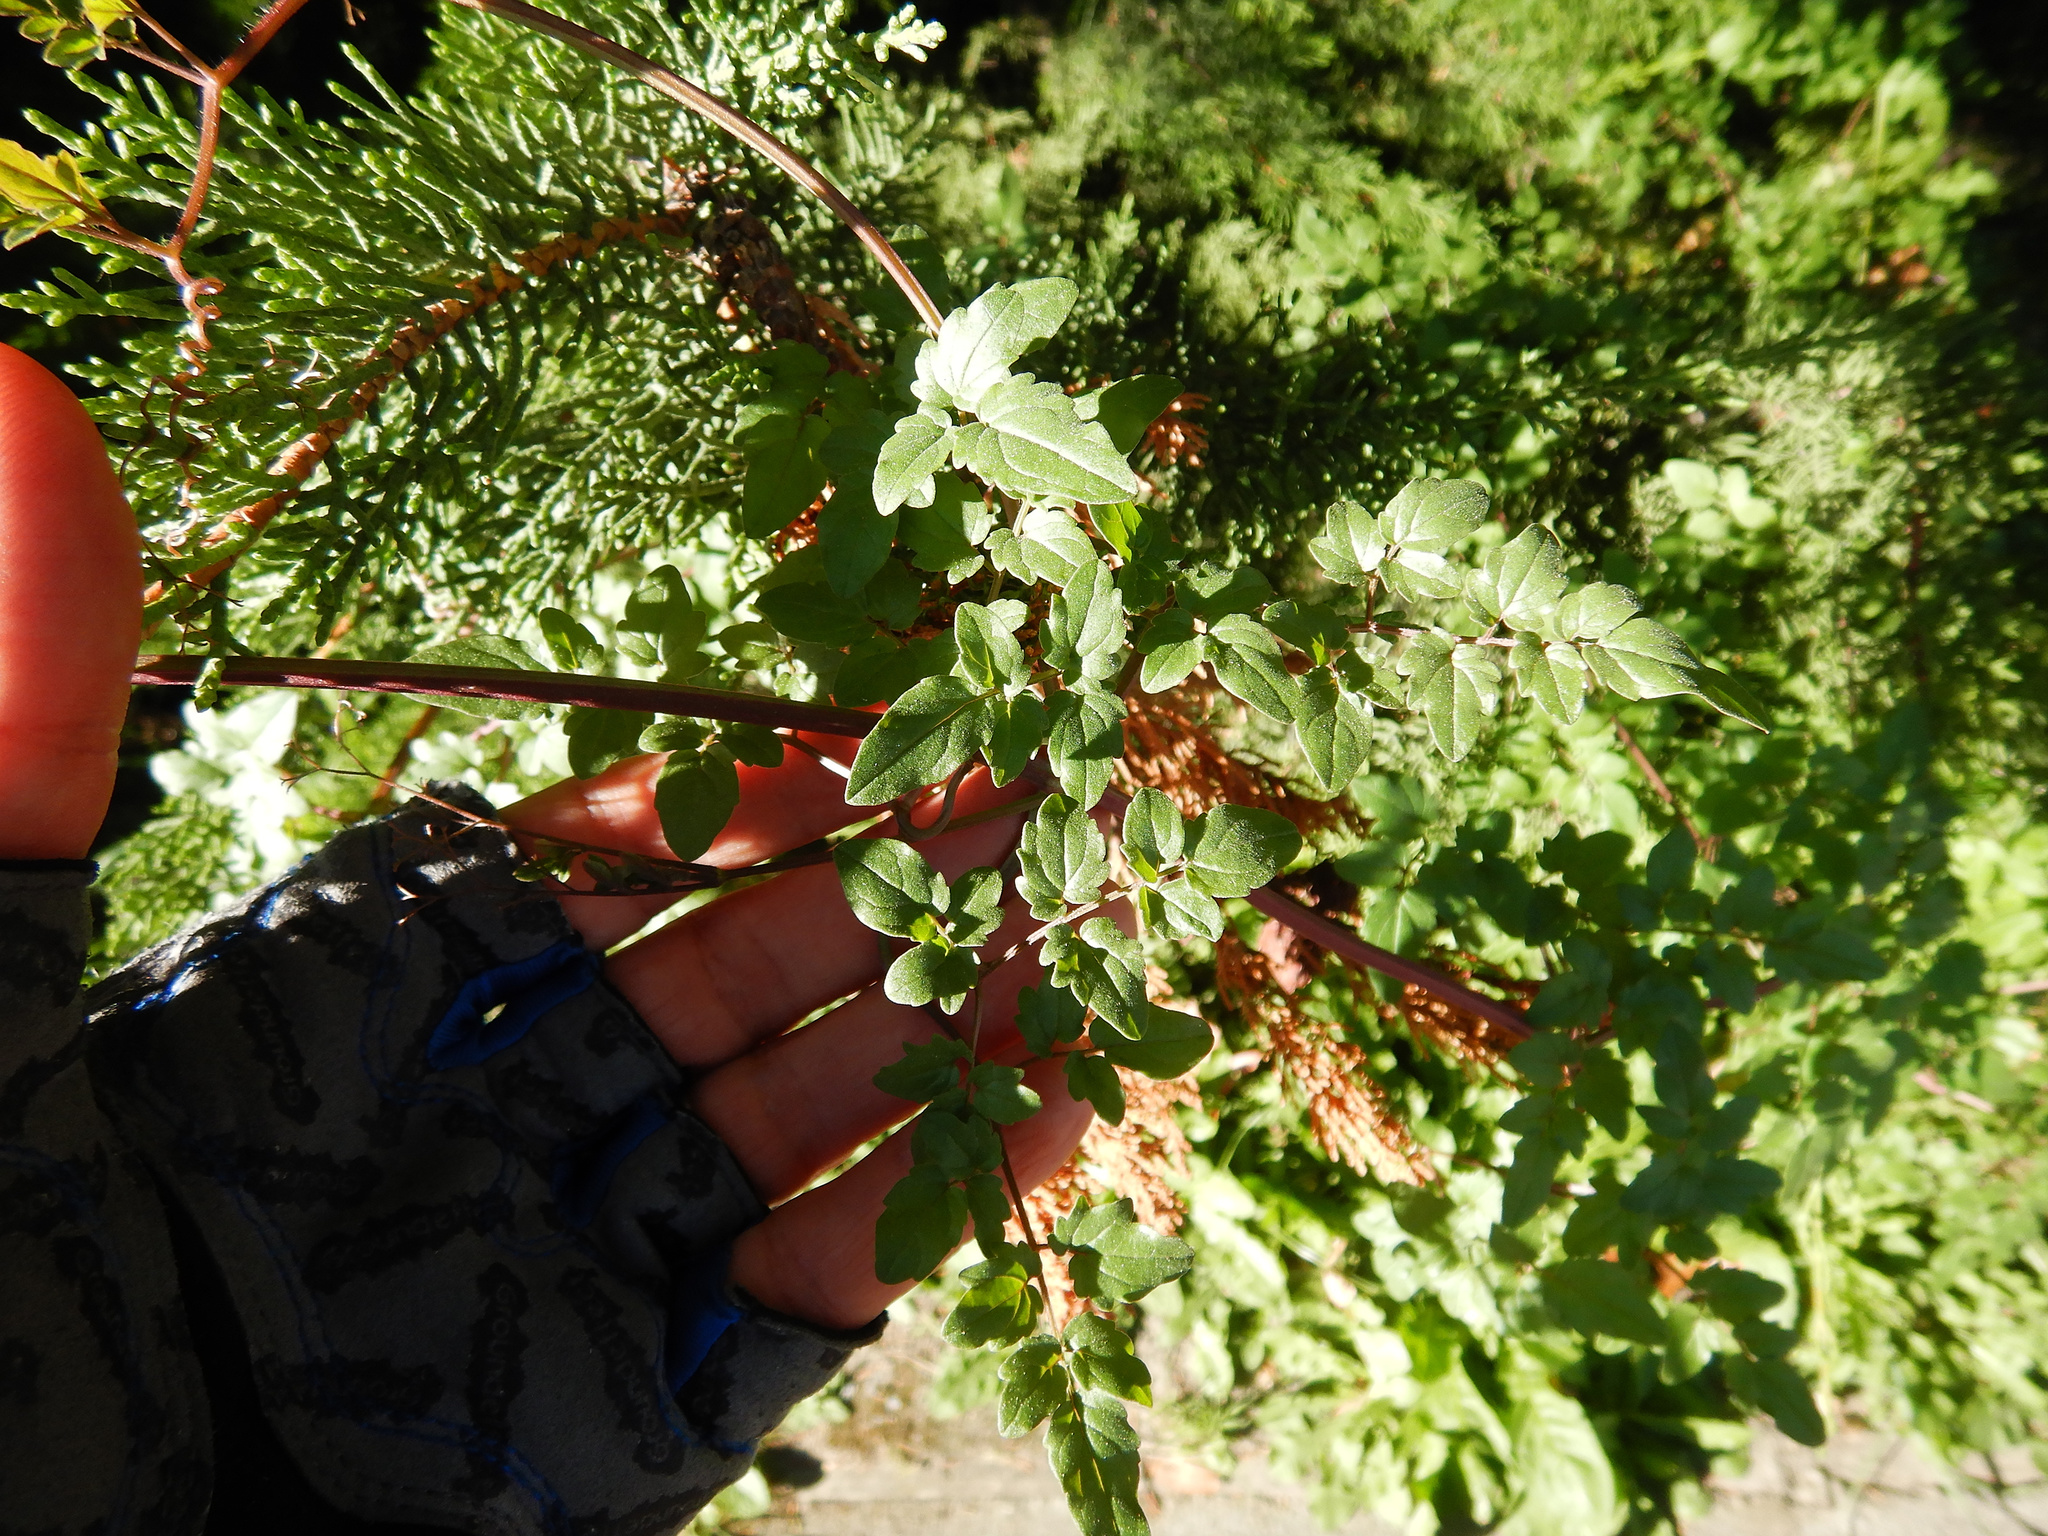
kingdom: Plantae
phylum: Tracheophyta
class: Magnoliopsida
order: Lamiales
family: Bignoniaceae
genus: Eccremocarpus
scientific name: Eccremocarpus scaber
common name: Chilean glory-flower
